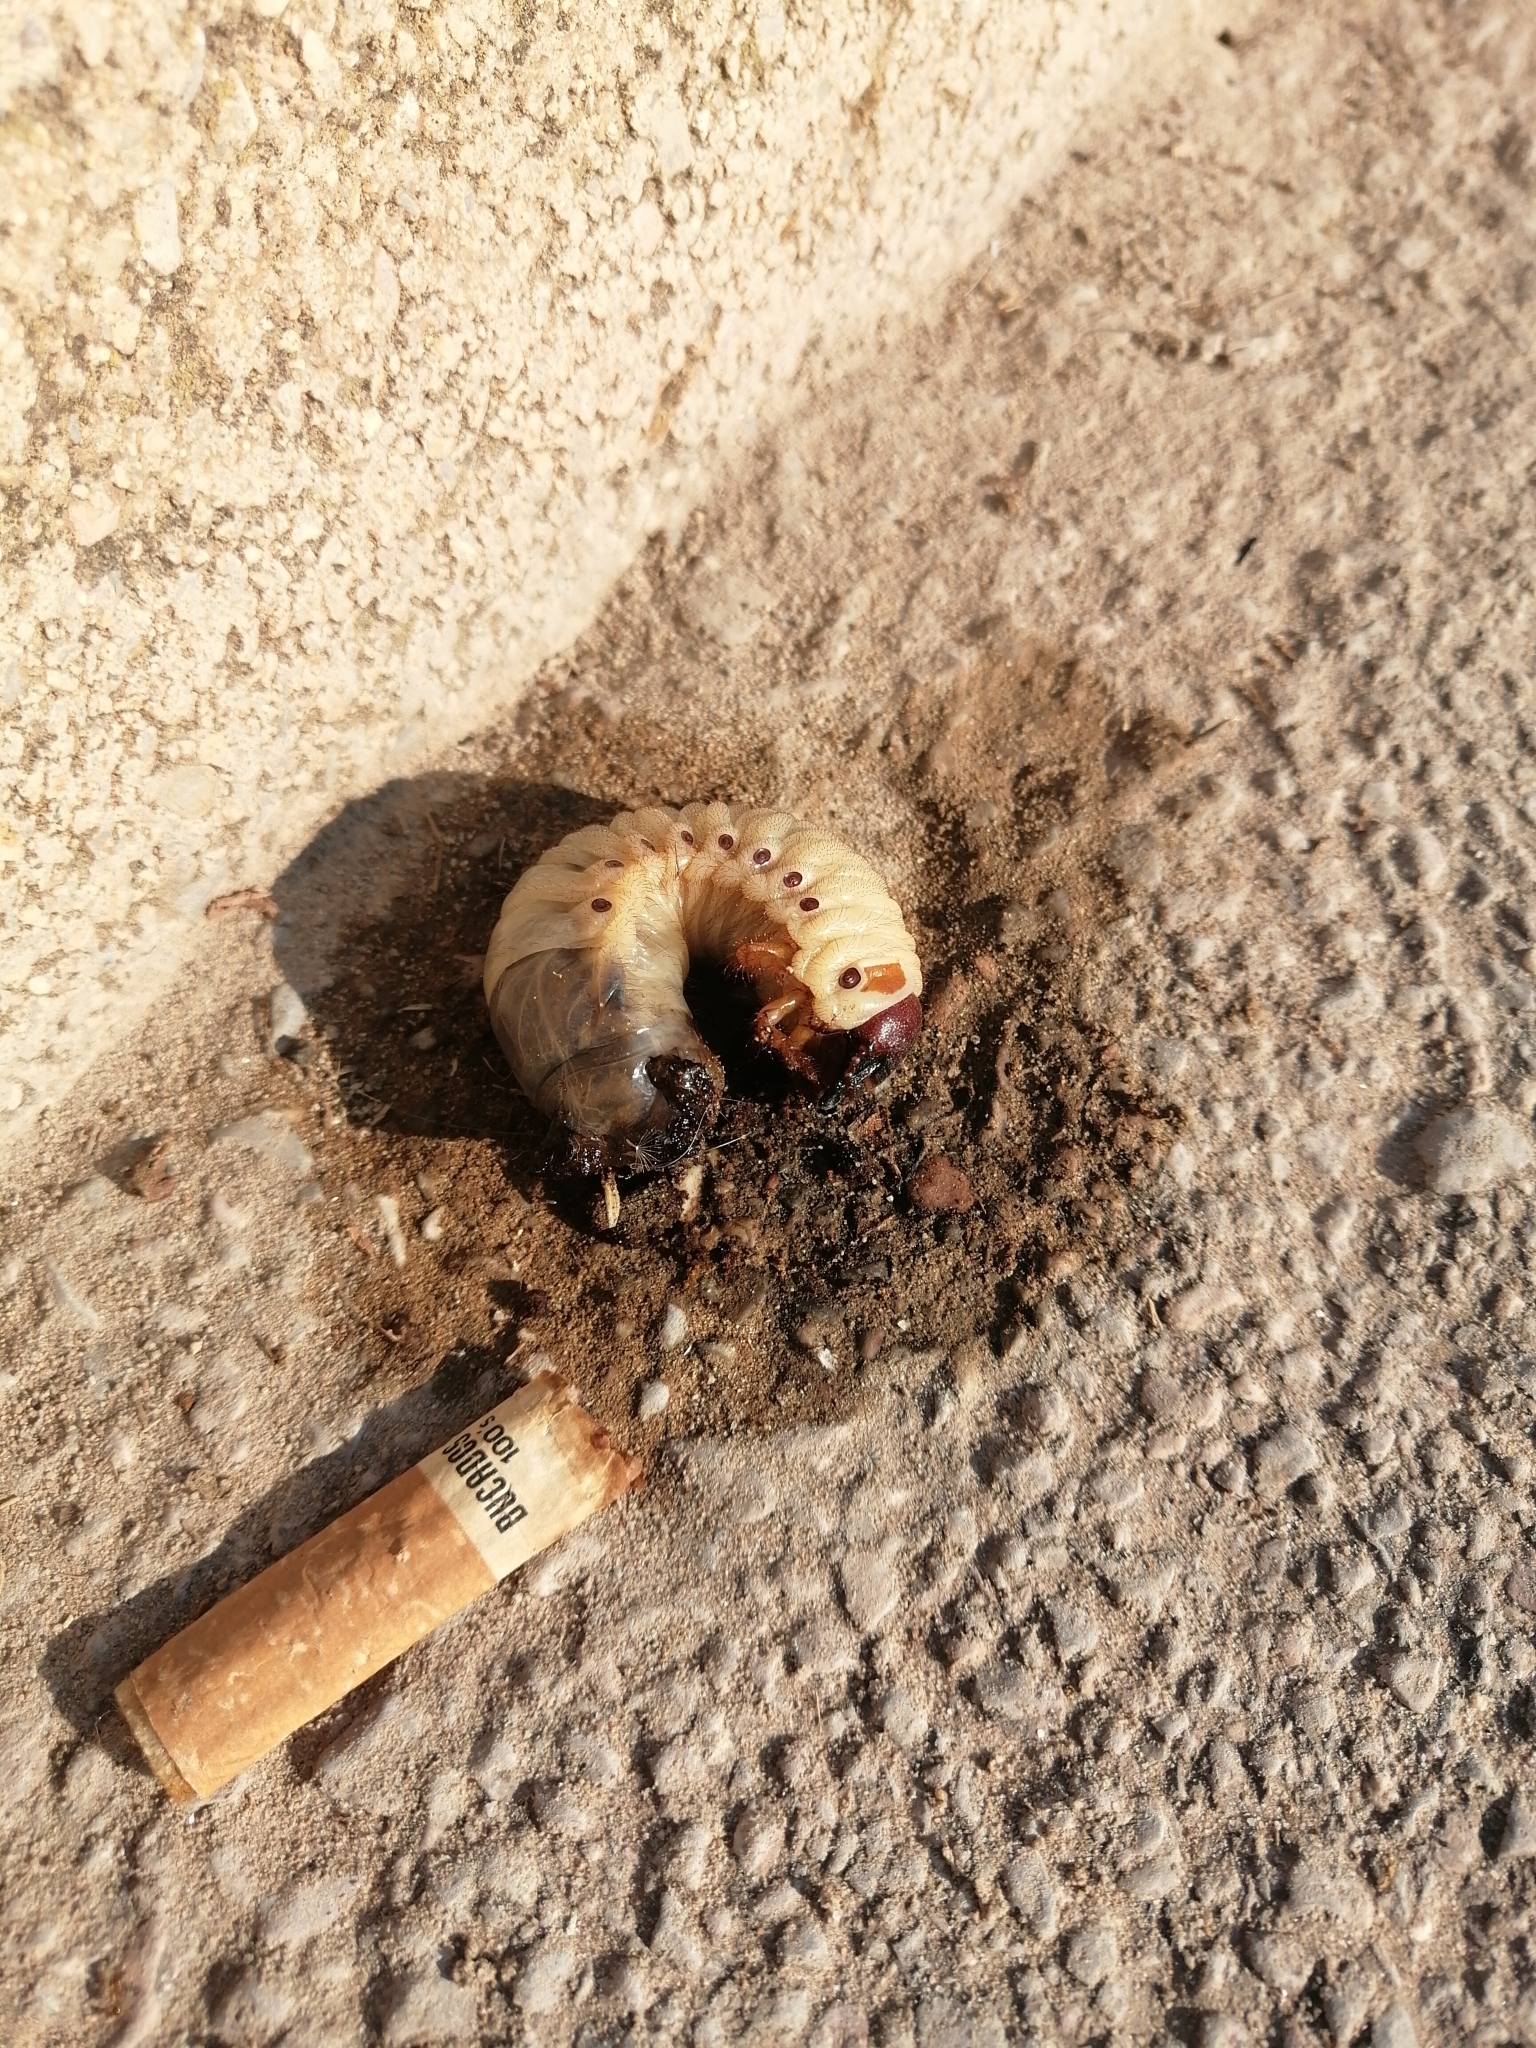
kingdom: Animalia
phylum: Arthropoda
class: Insecta
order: Coleoptera
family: Scarabaeidae
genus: Oryctes
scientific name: Oryctes nasicornis
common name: European rhinoceros beetle
